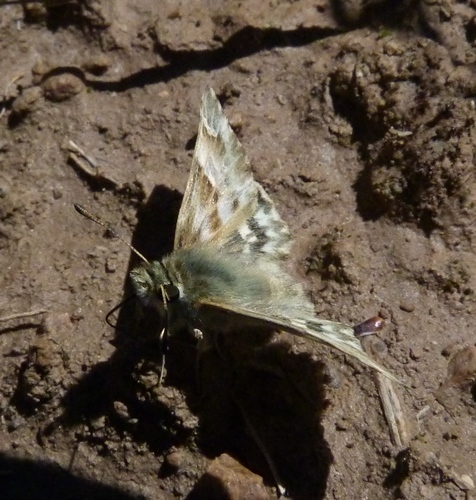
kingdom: Animalia
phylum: Arthropoda
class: Insecta
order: Lepidoptera
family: Hesperiidae
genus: Carcharodus
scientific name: Carcharodus lavatherae
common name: Marbled skipper
